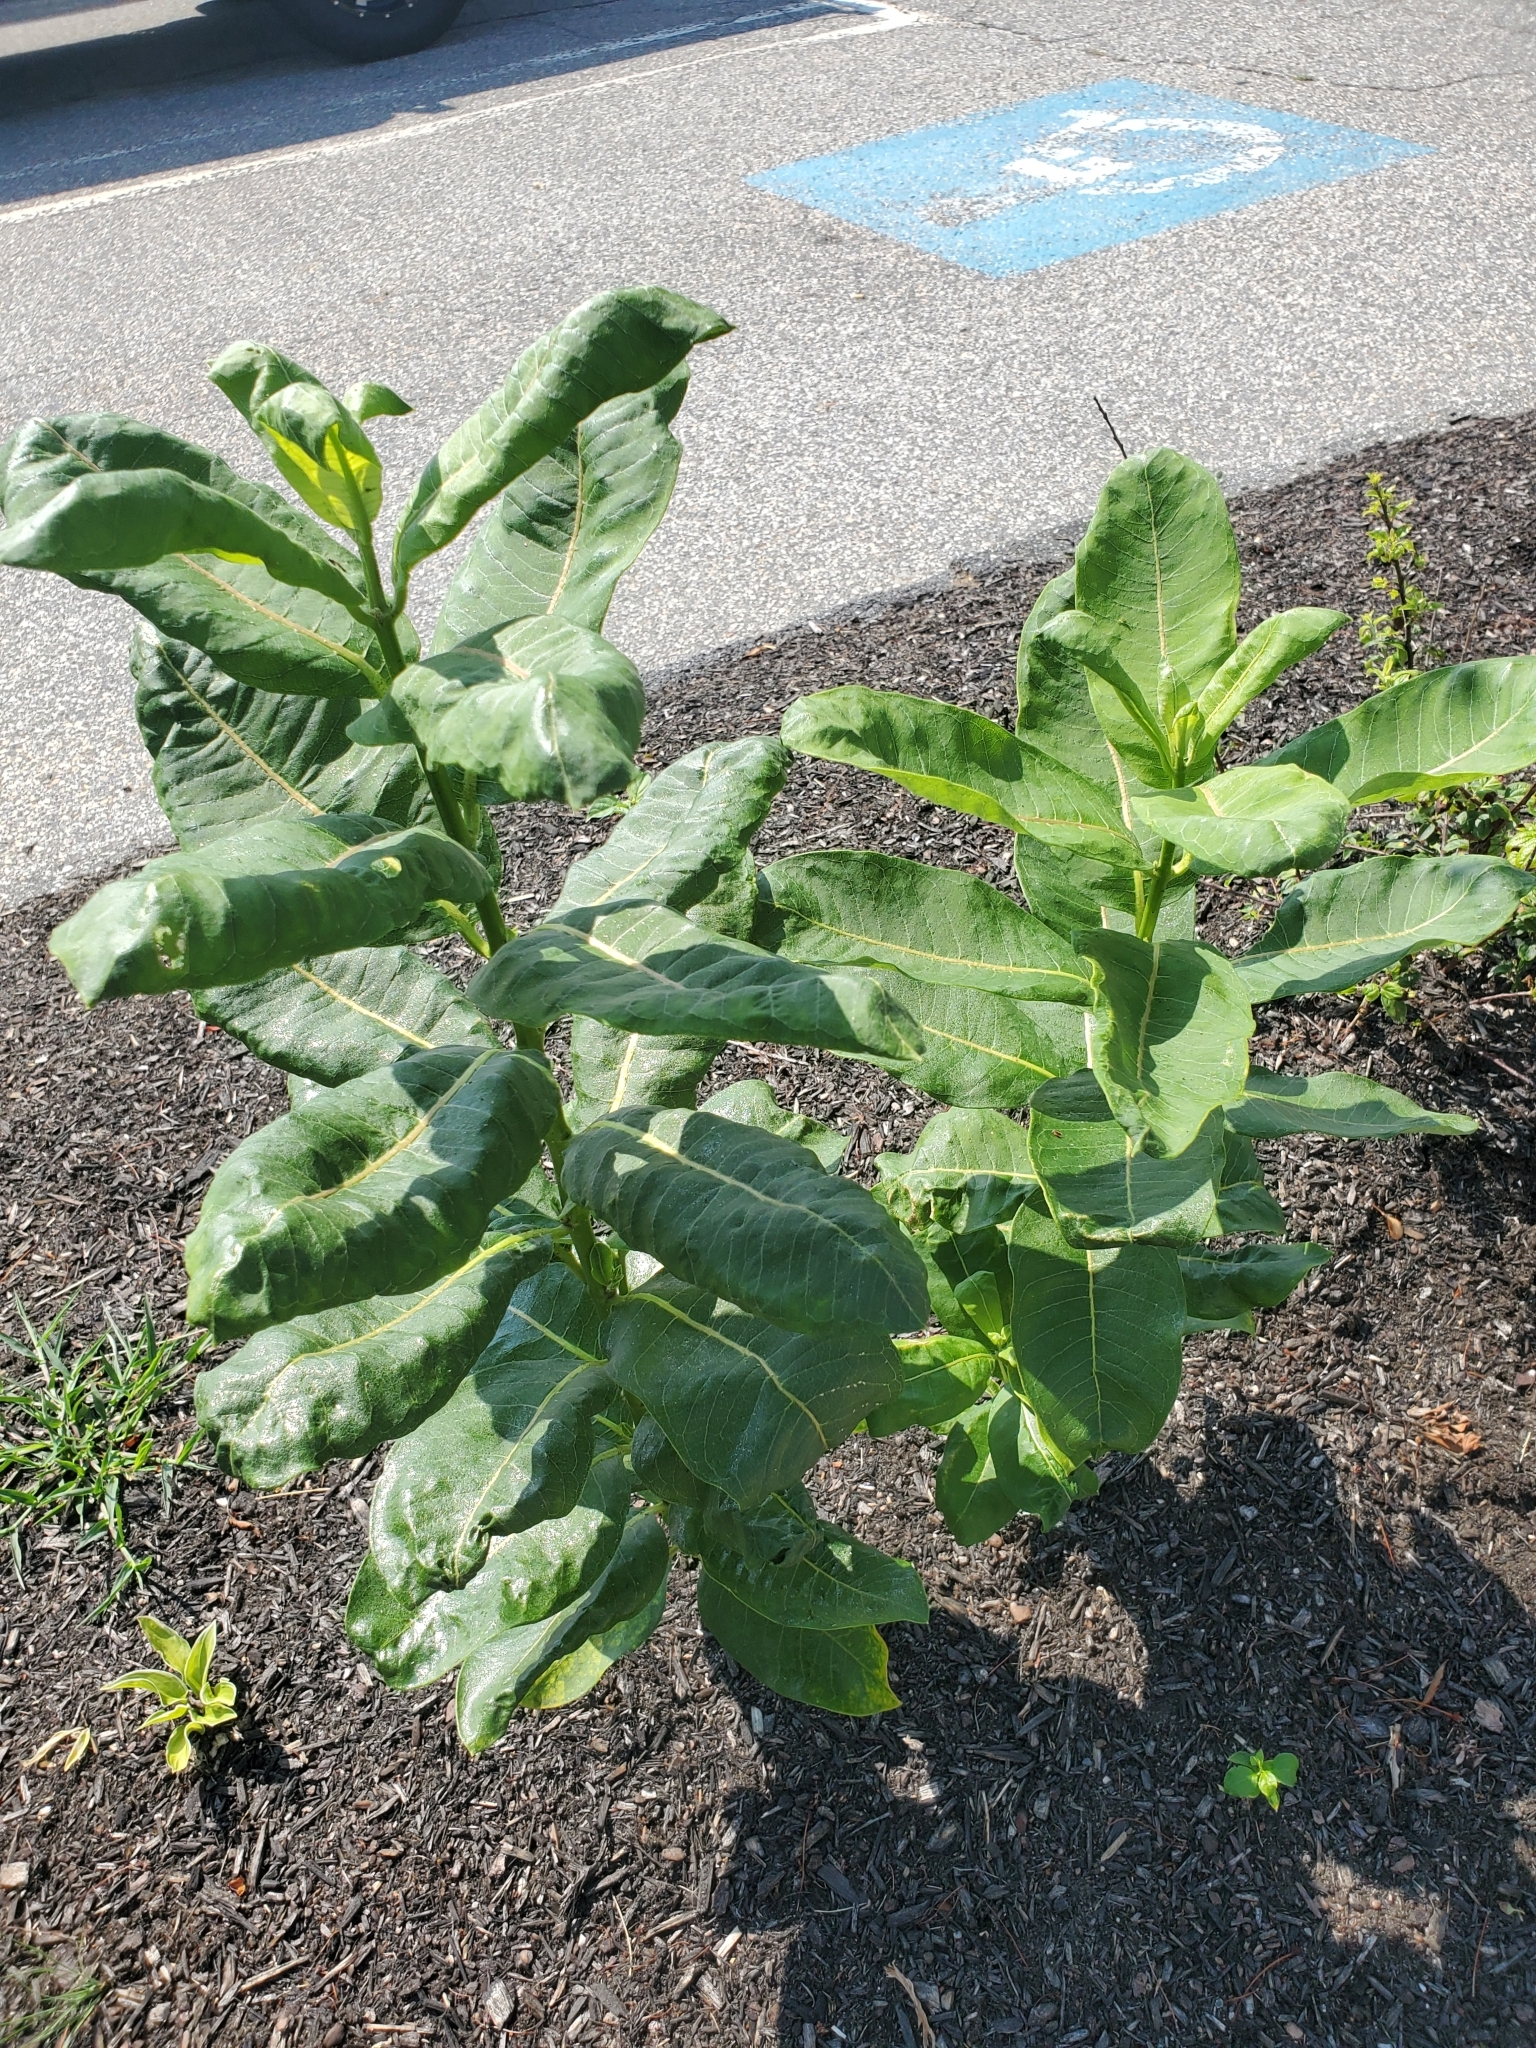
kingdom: Plantae
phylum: Tracheophyta
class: Magnoliopsida
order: Gentianales
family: Apocynaceae
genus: Asclepias
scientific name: Asclepias syriaca
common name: Common milkweed
